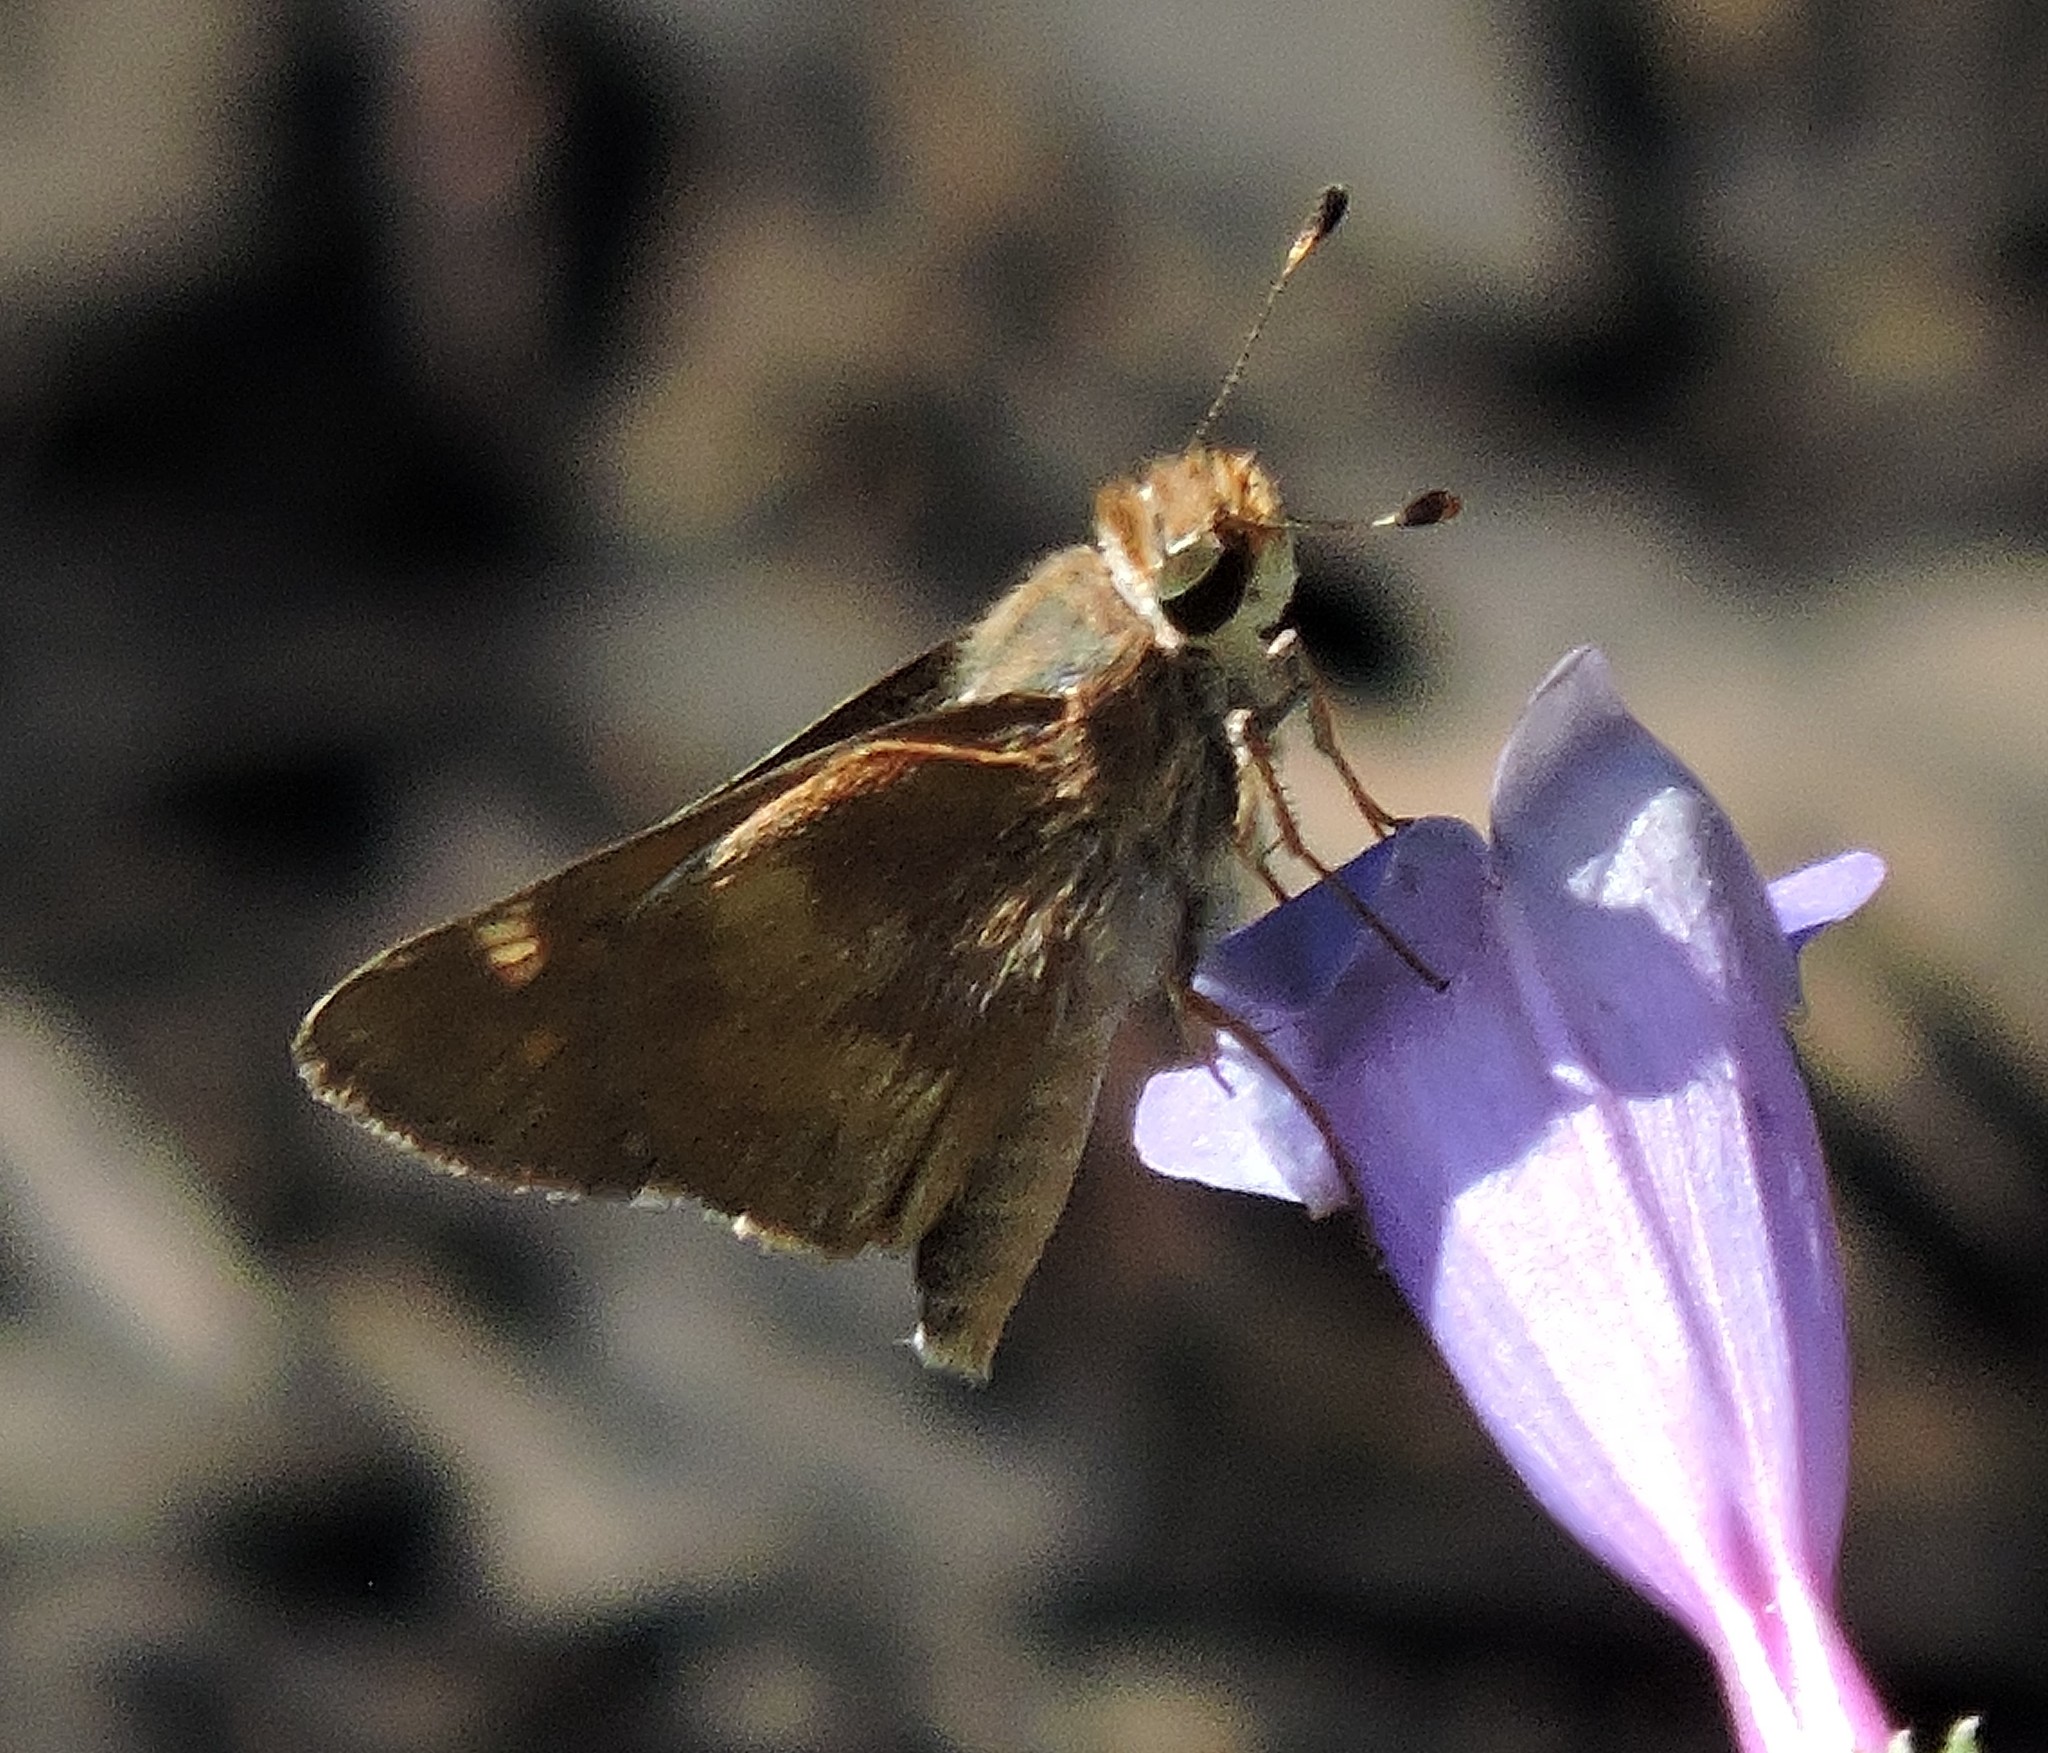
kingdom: Animalia
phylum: Arthropoda
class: Insecta
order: Lepidoptera
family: Hesperiidae
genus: Lon
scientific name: Lon melane
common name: Umber skipper
